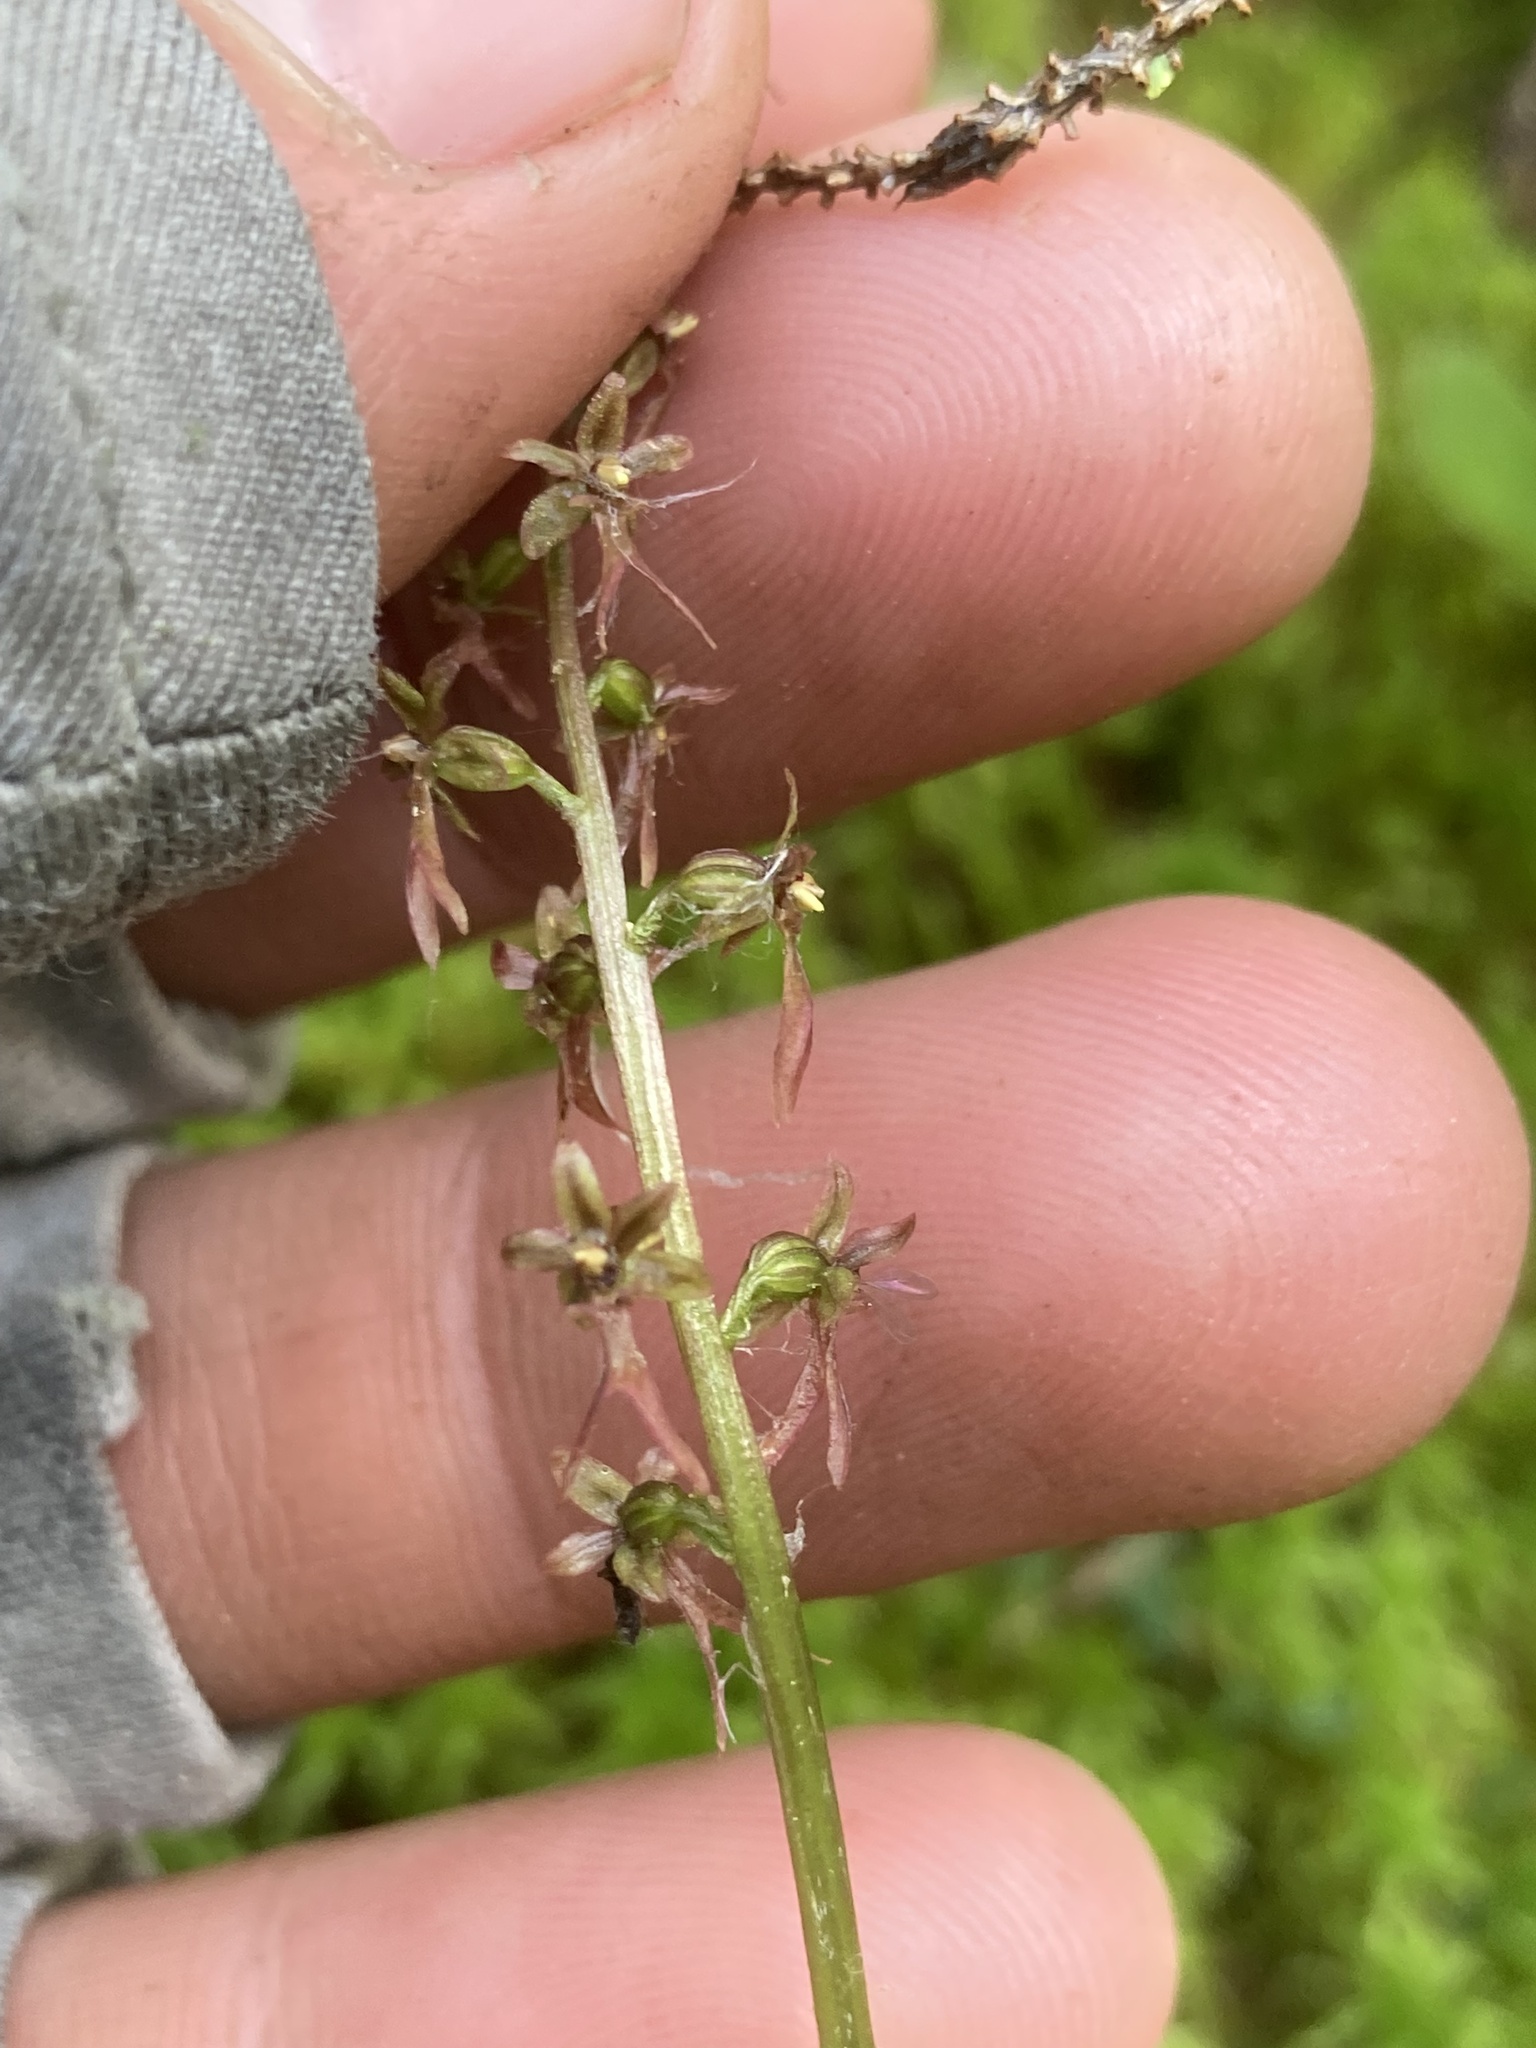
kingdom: Plantae
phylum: Tracheophyta
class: Liliopsida
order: Asparagales
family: Orchidaceae
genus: Neottia
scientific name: Neottia cordata
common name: Lesser twayblade
